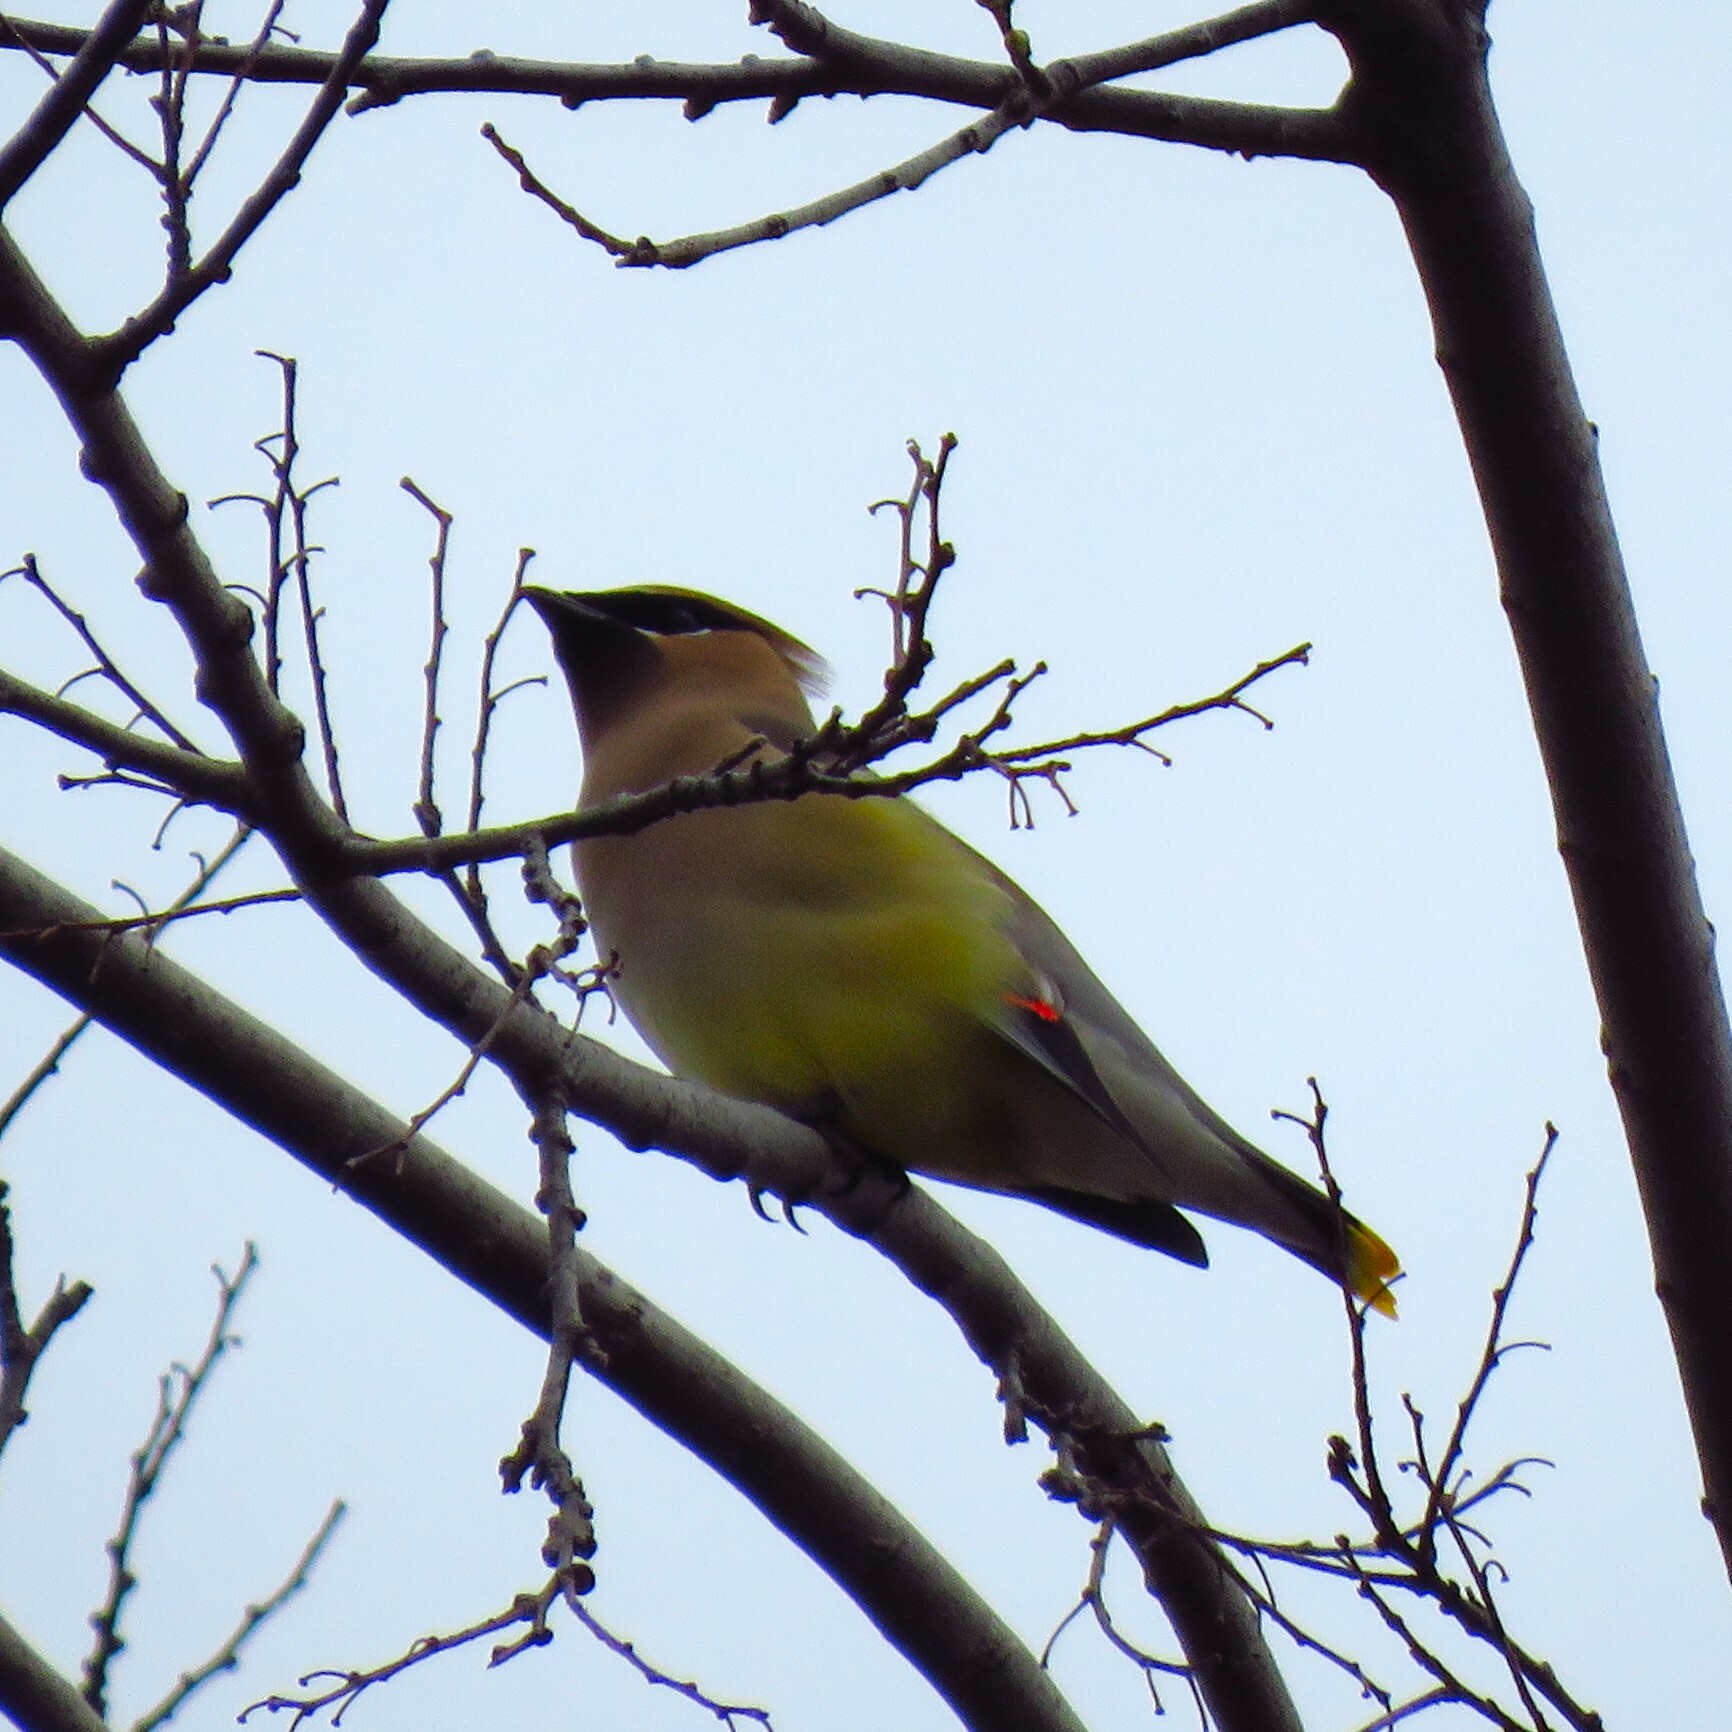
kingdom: Animalia
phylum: Chordata
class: Aves
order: Passeriformes
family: Bombycillidae
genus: Bombycilla
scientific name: Bombycilla cedrorum
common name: Cedar waxwing
